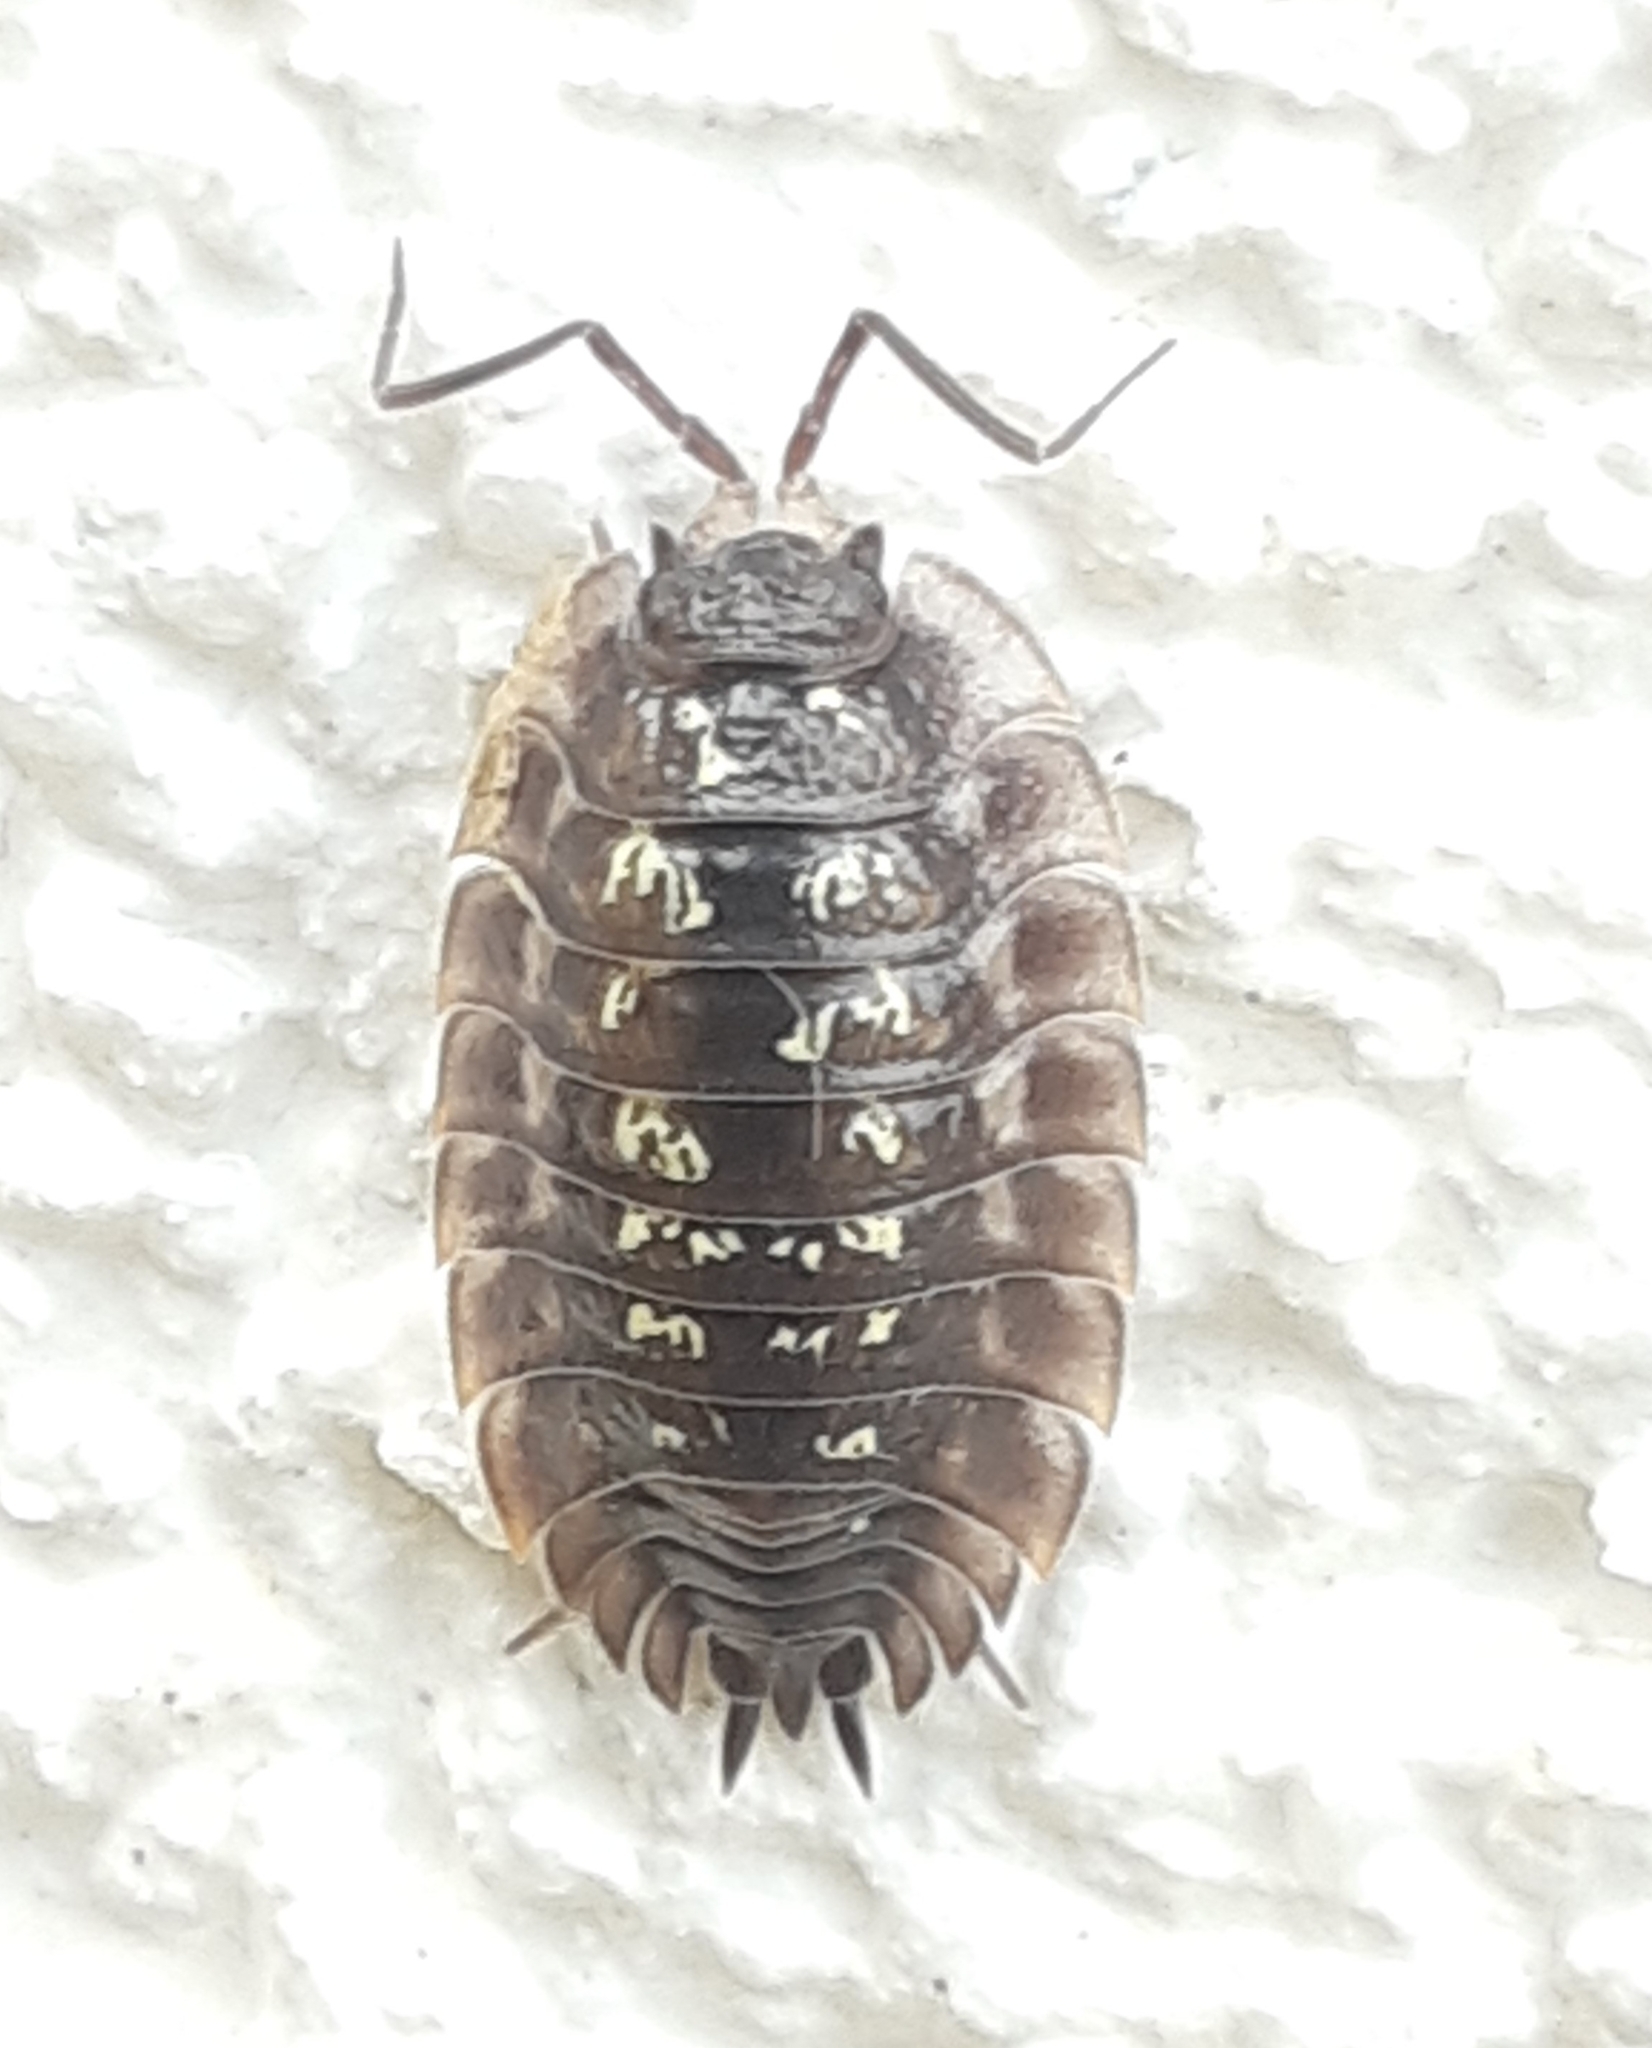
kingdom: Animalia
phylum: Arthropoda
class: Malacostraca
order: Isopoda
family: Oniscidae
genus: Oniscus
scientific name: Oniscus asellus
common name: Common shiny woodlouse
